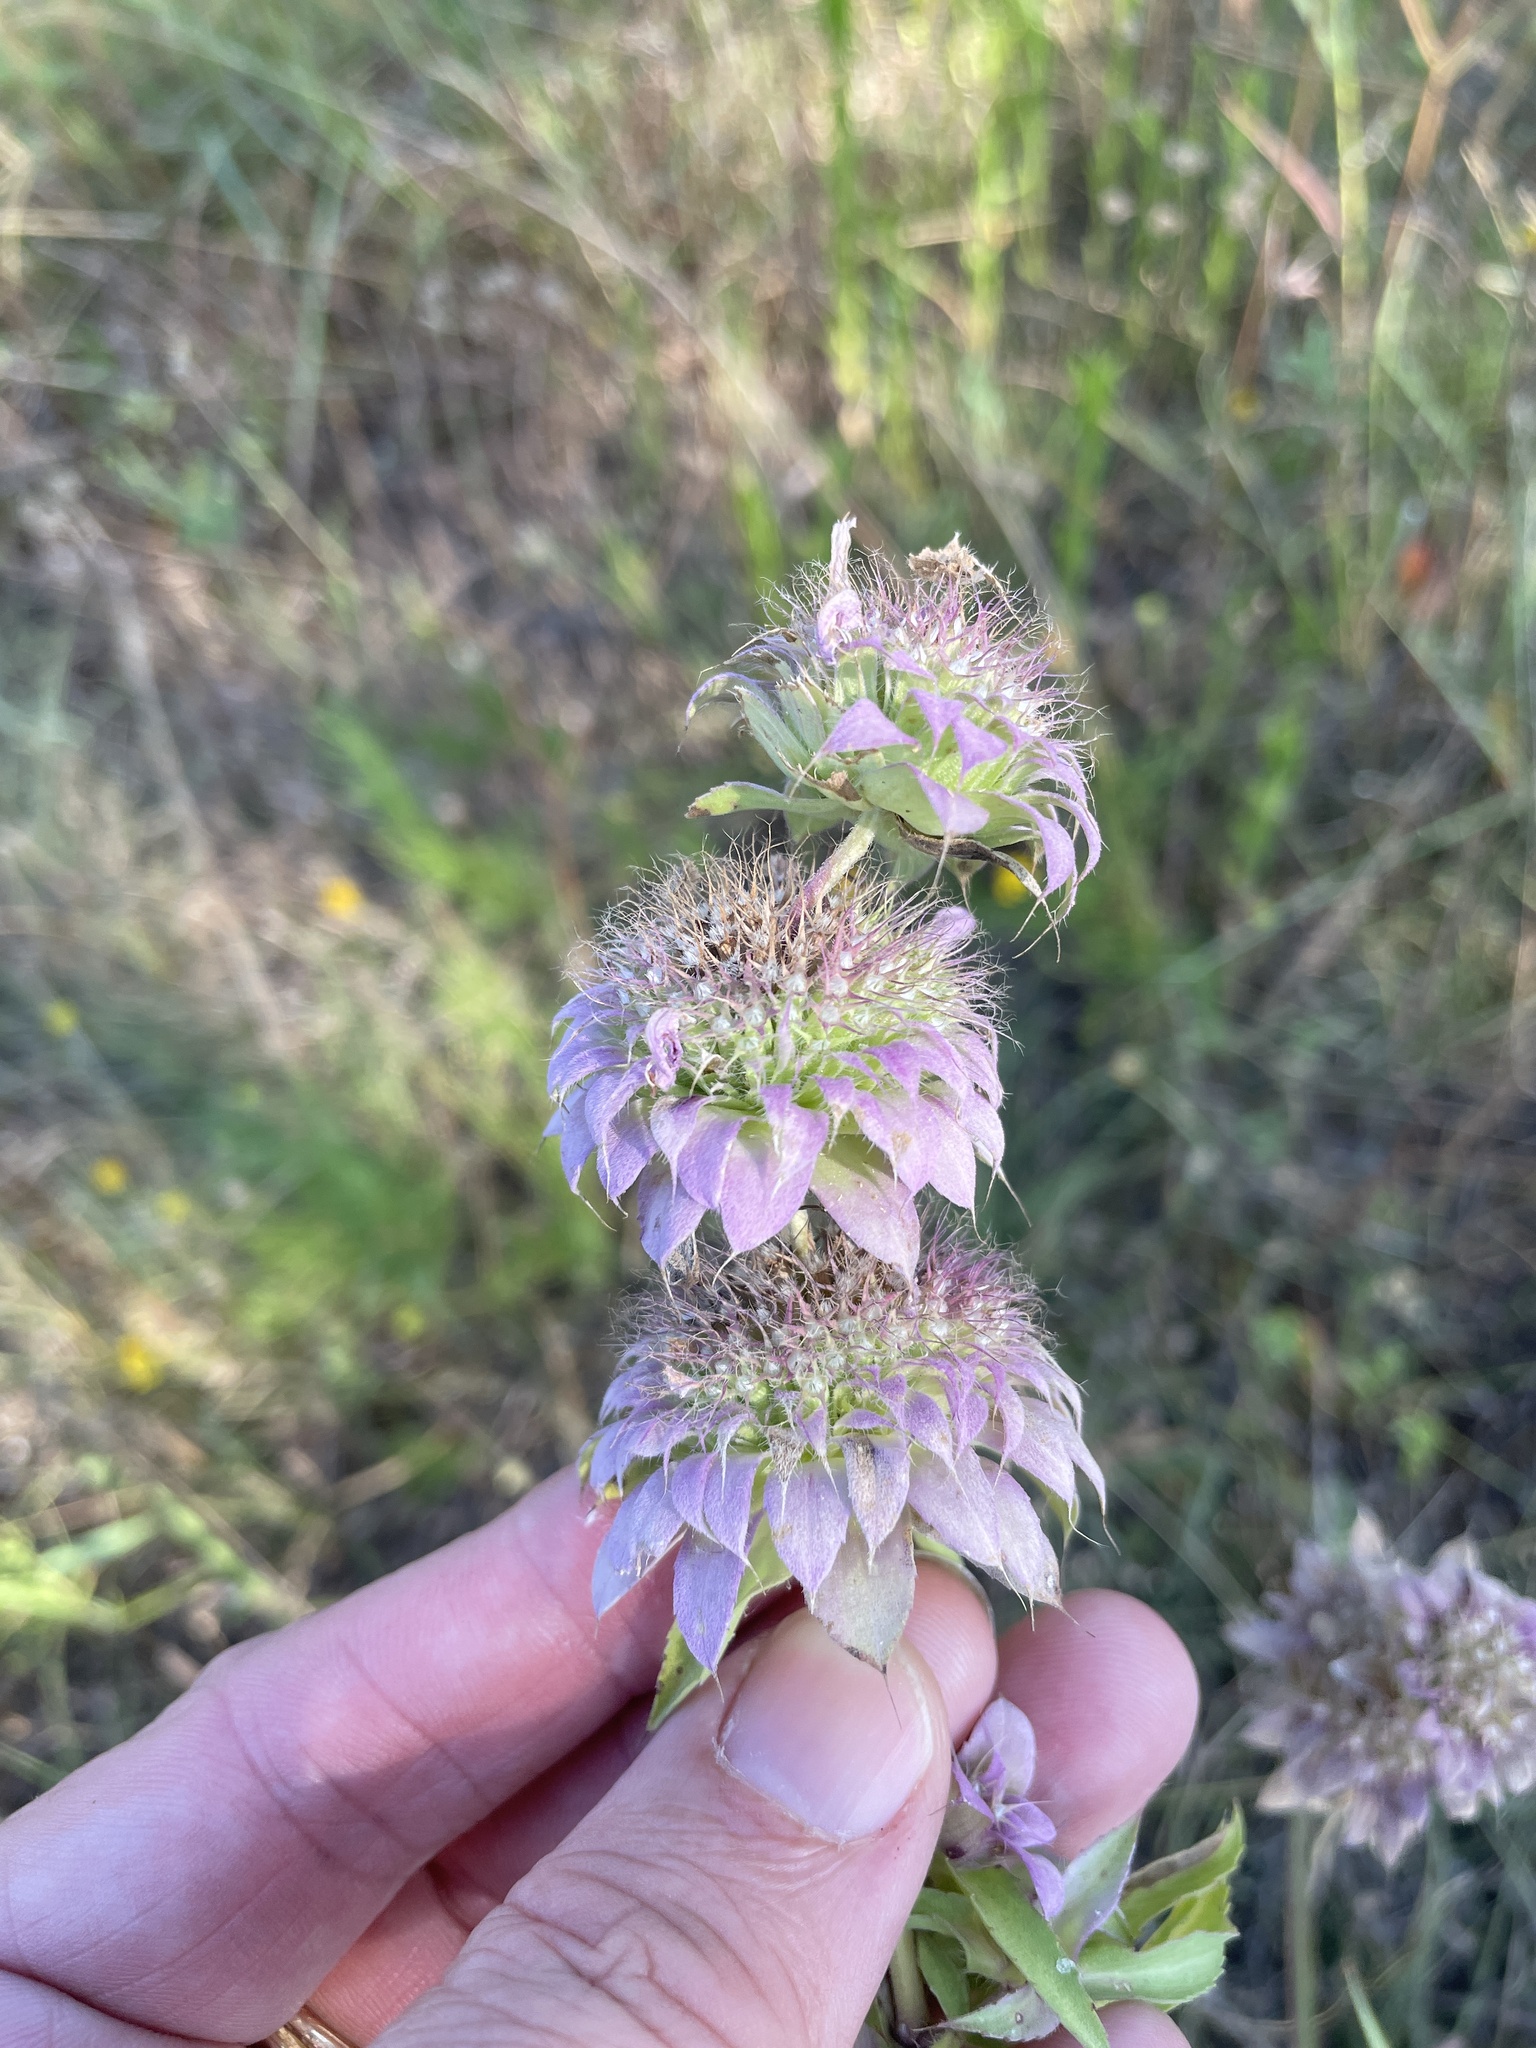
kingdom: Plantae
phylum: Tracheophyta
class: Magnoliopsida
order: Lamiales
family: Lamiaceae
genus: Monarda
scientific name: Monarda citriodora
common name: Lemon beebalm
